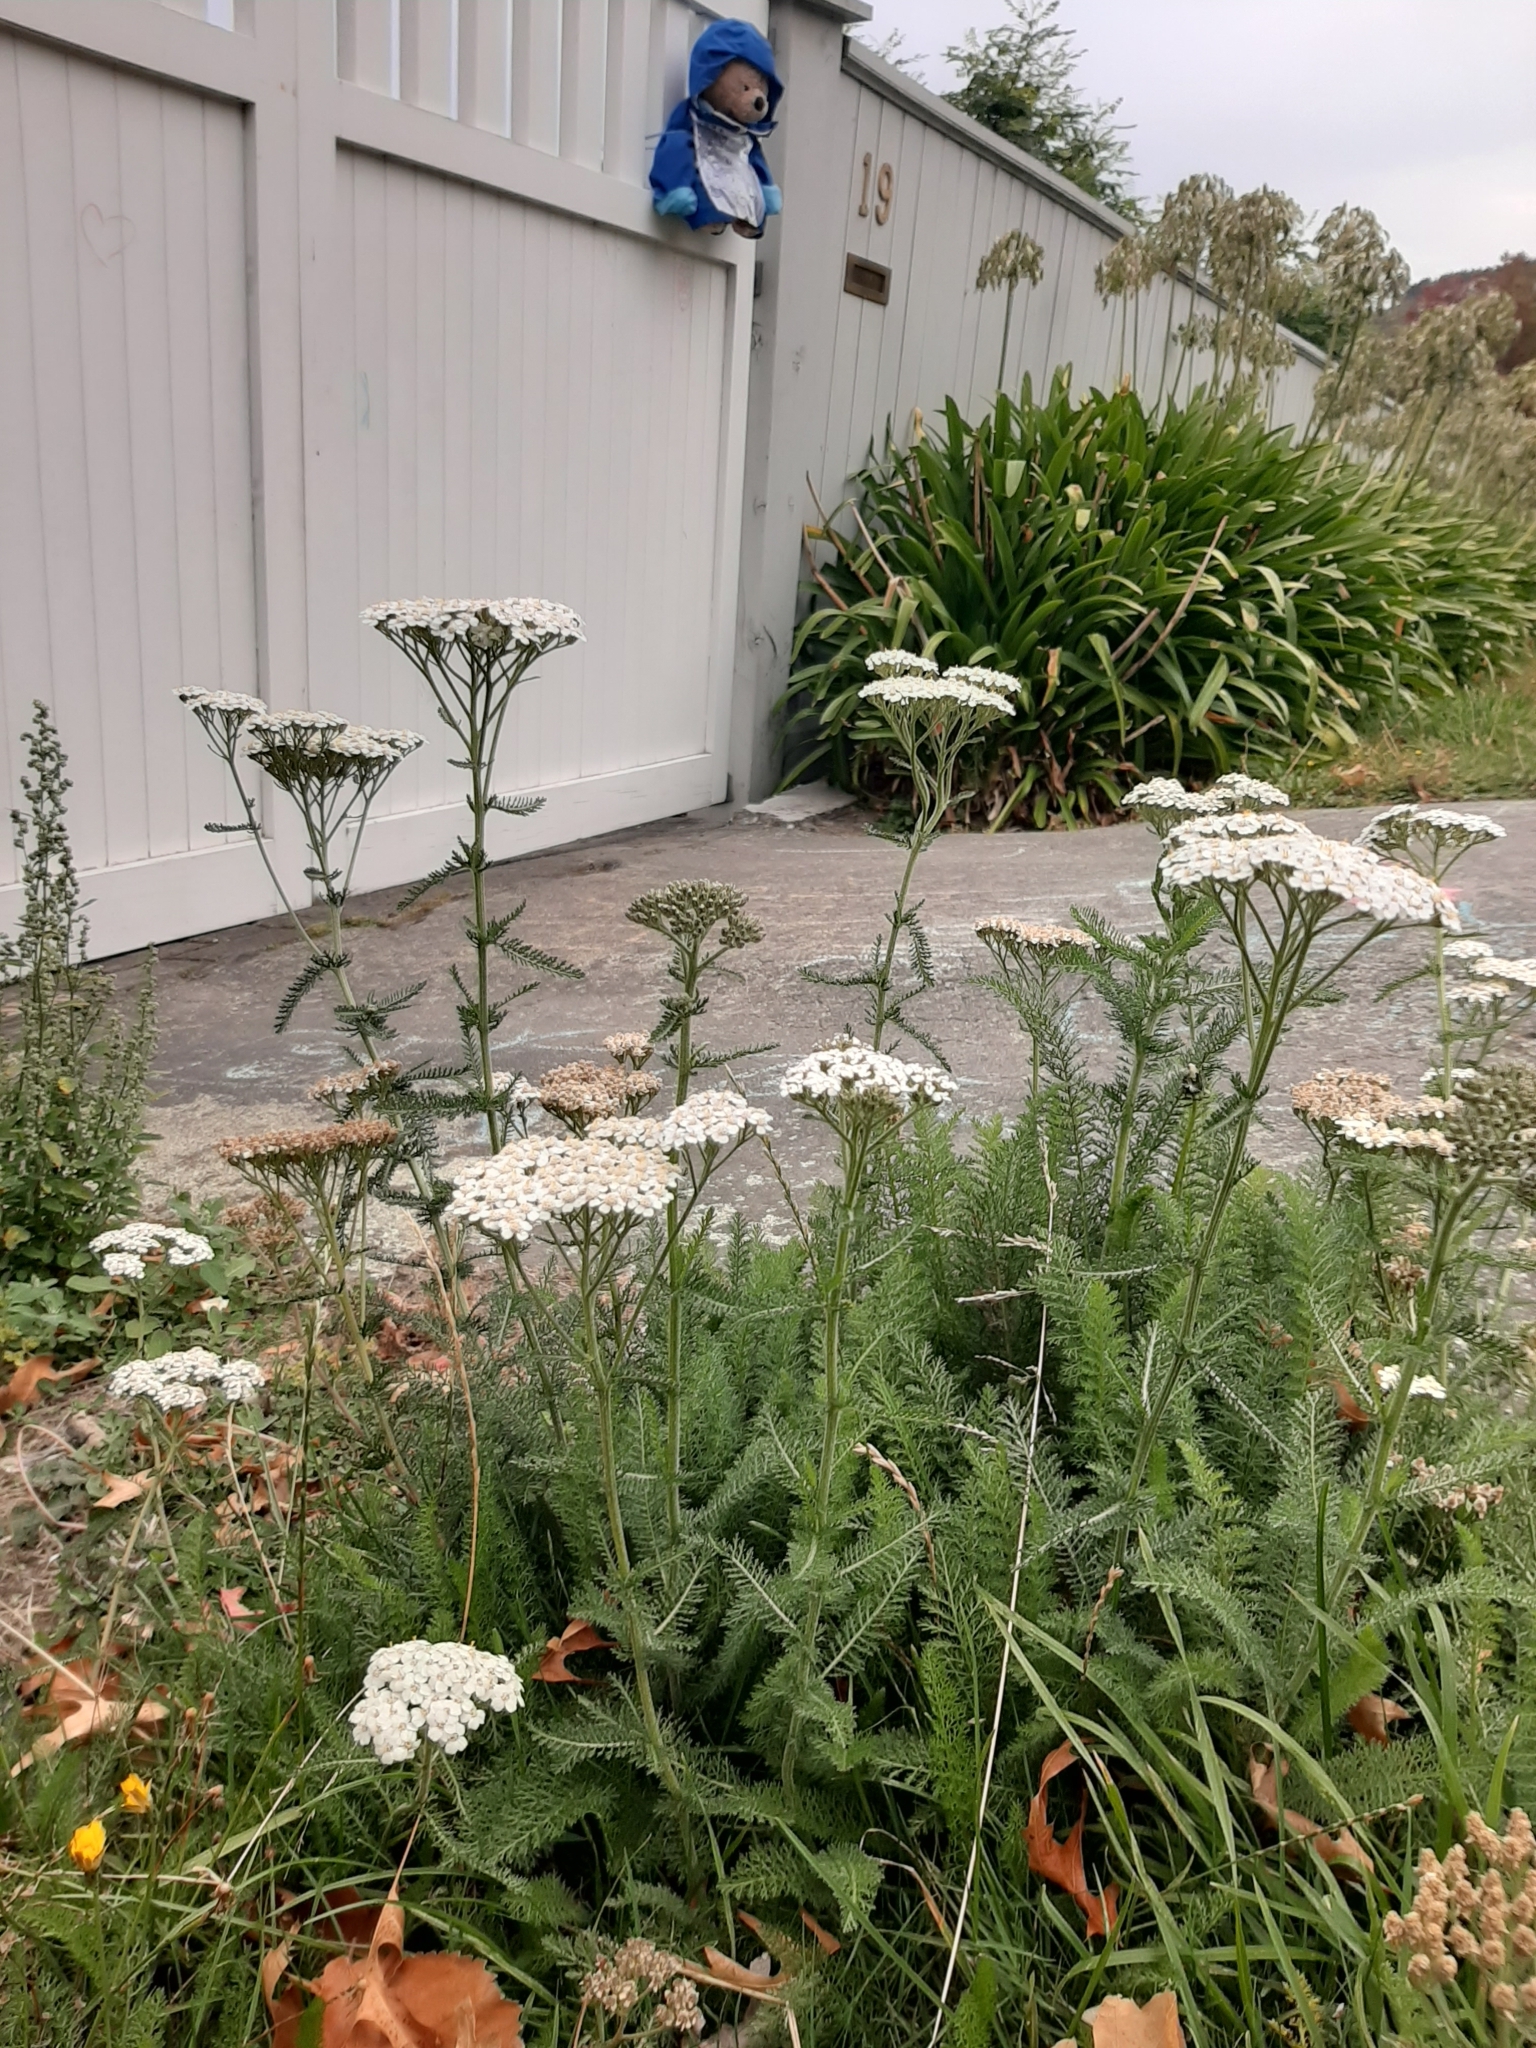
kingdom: Plantae
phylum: Tracheophyta
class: Magnoliopsida
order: Asterales
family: Asteraceae
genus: Achillea
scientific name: Achillea millefolium
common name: Yarrow
